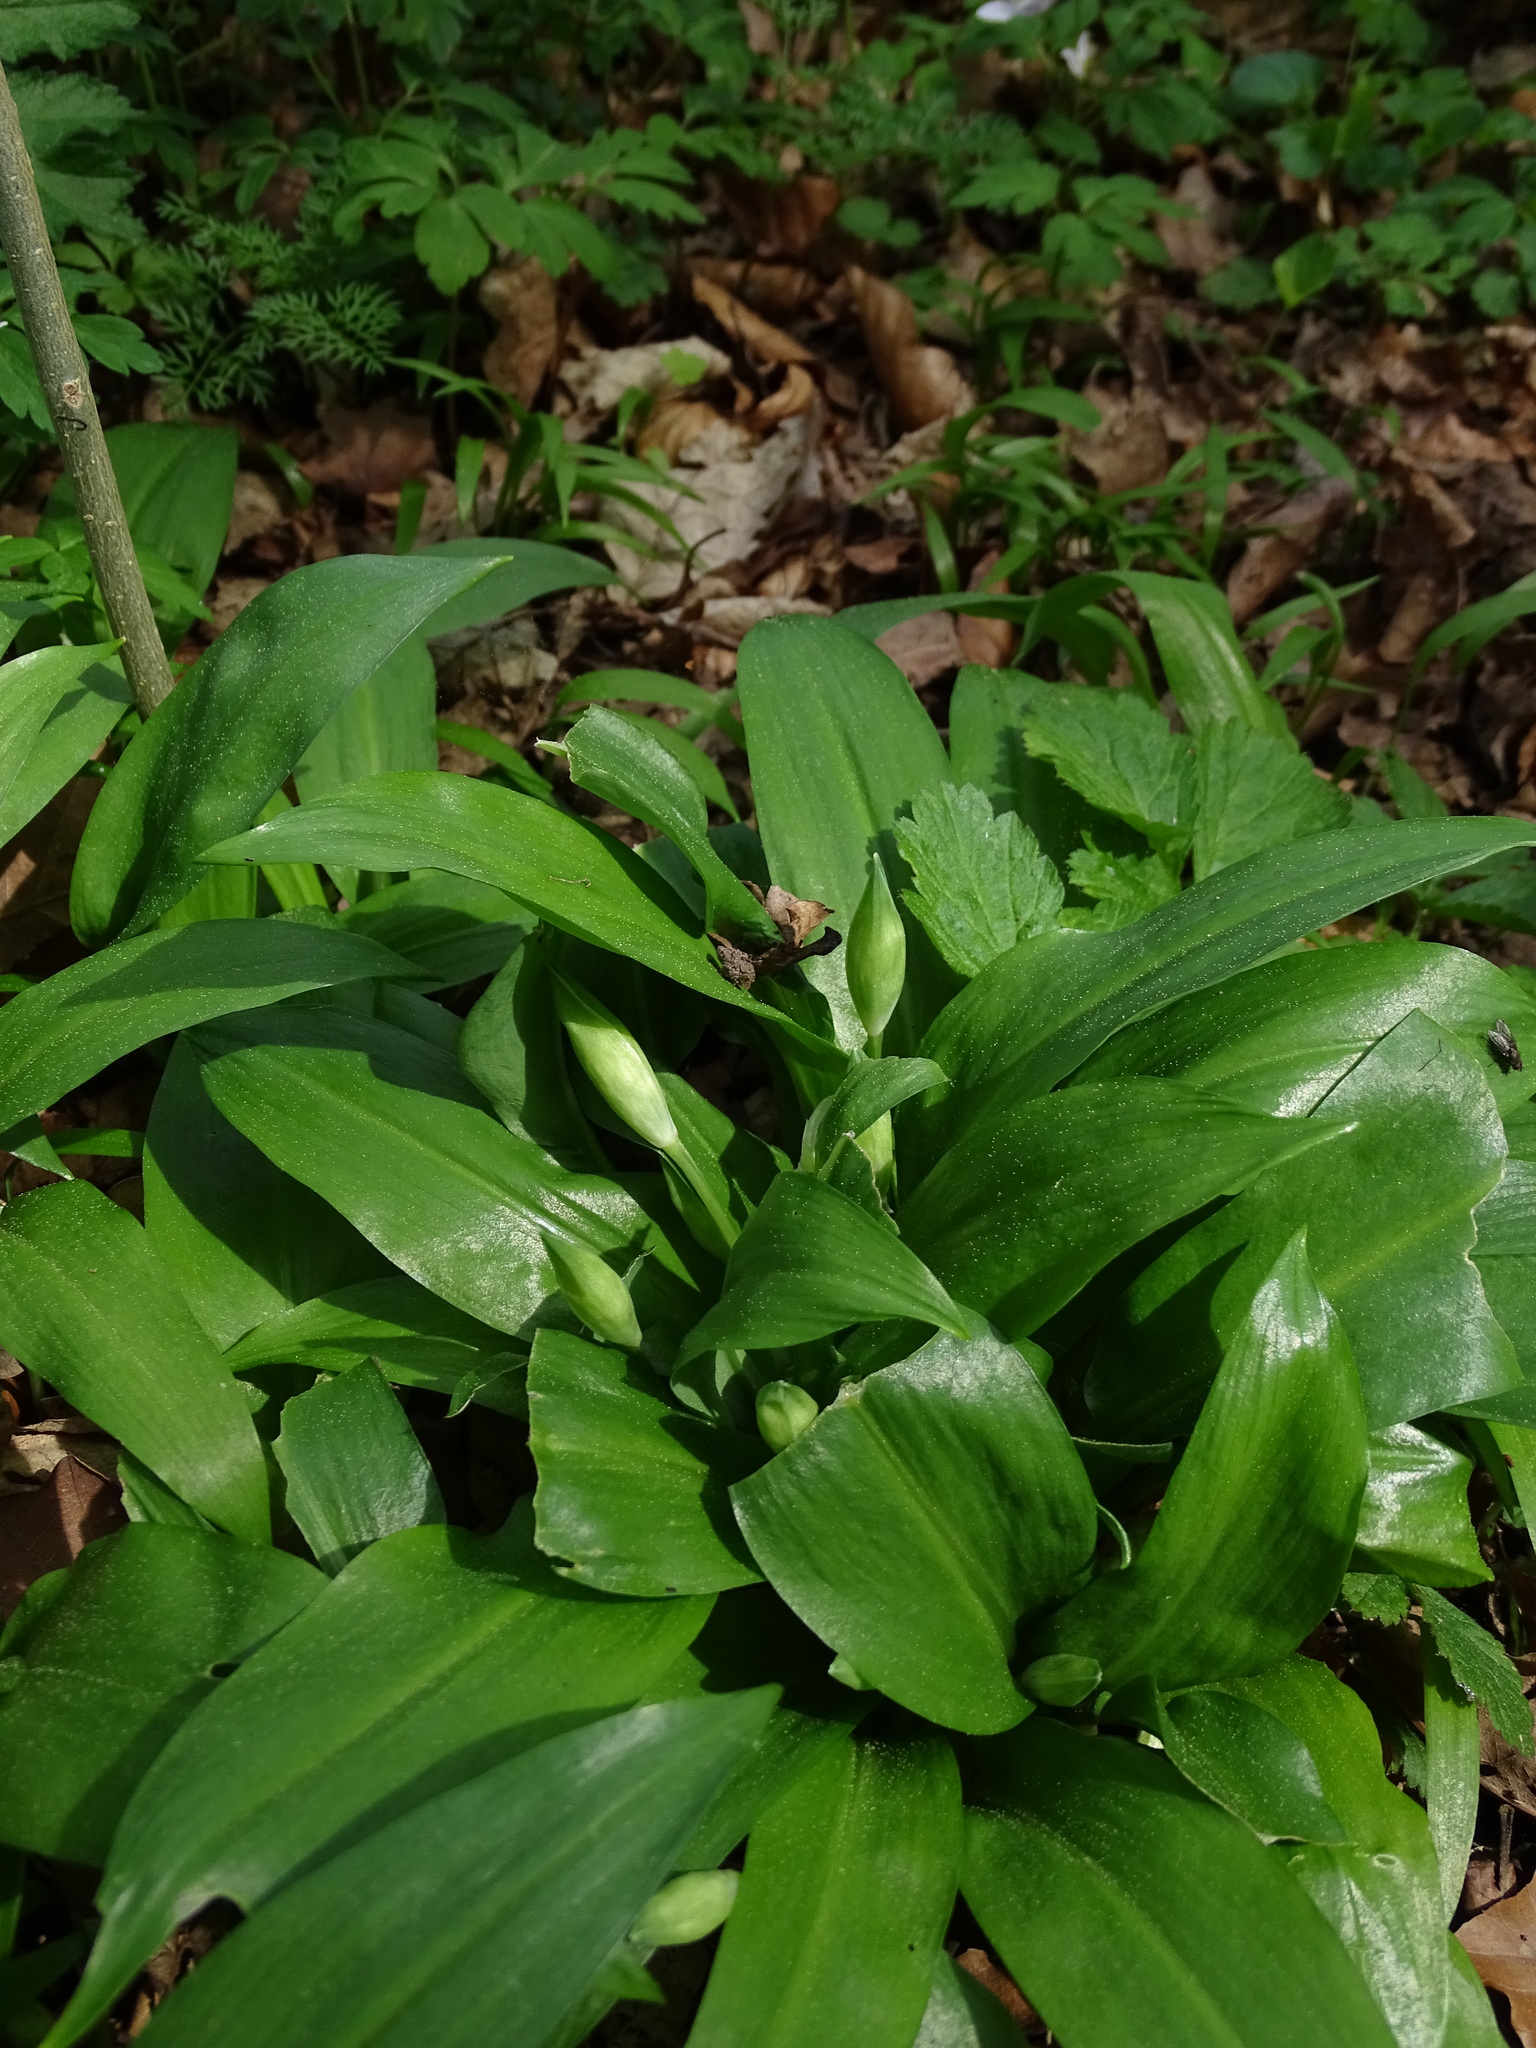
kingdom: Plantae
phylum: Tracheophyta
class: Liliopsida
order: Asparagales
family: Amaryllidaceae
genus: Allium
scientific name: Allium ursinum
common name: Ramsons
